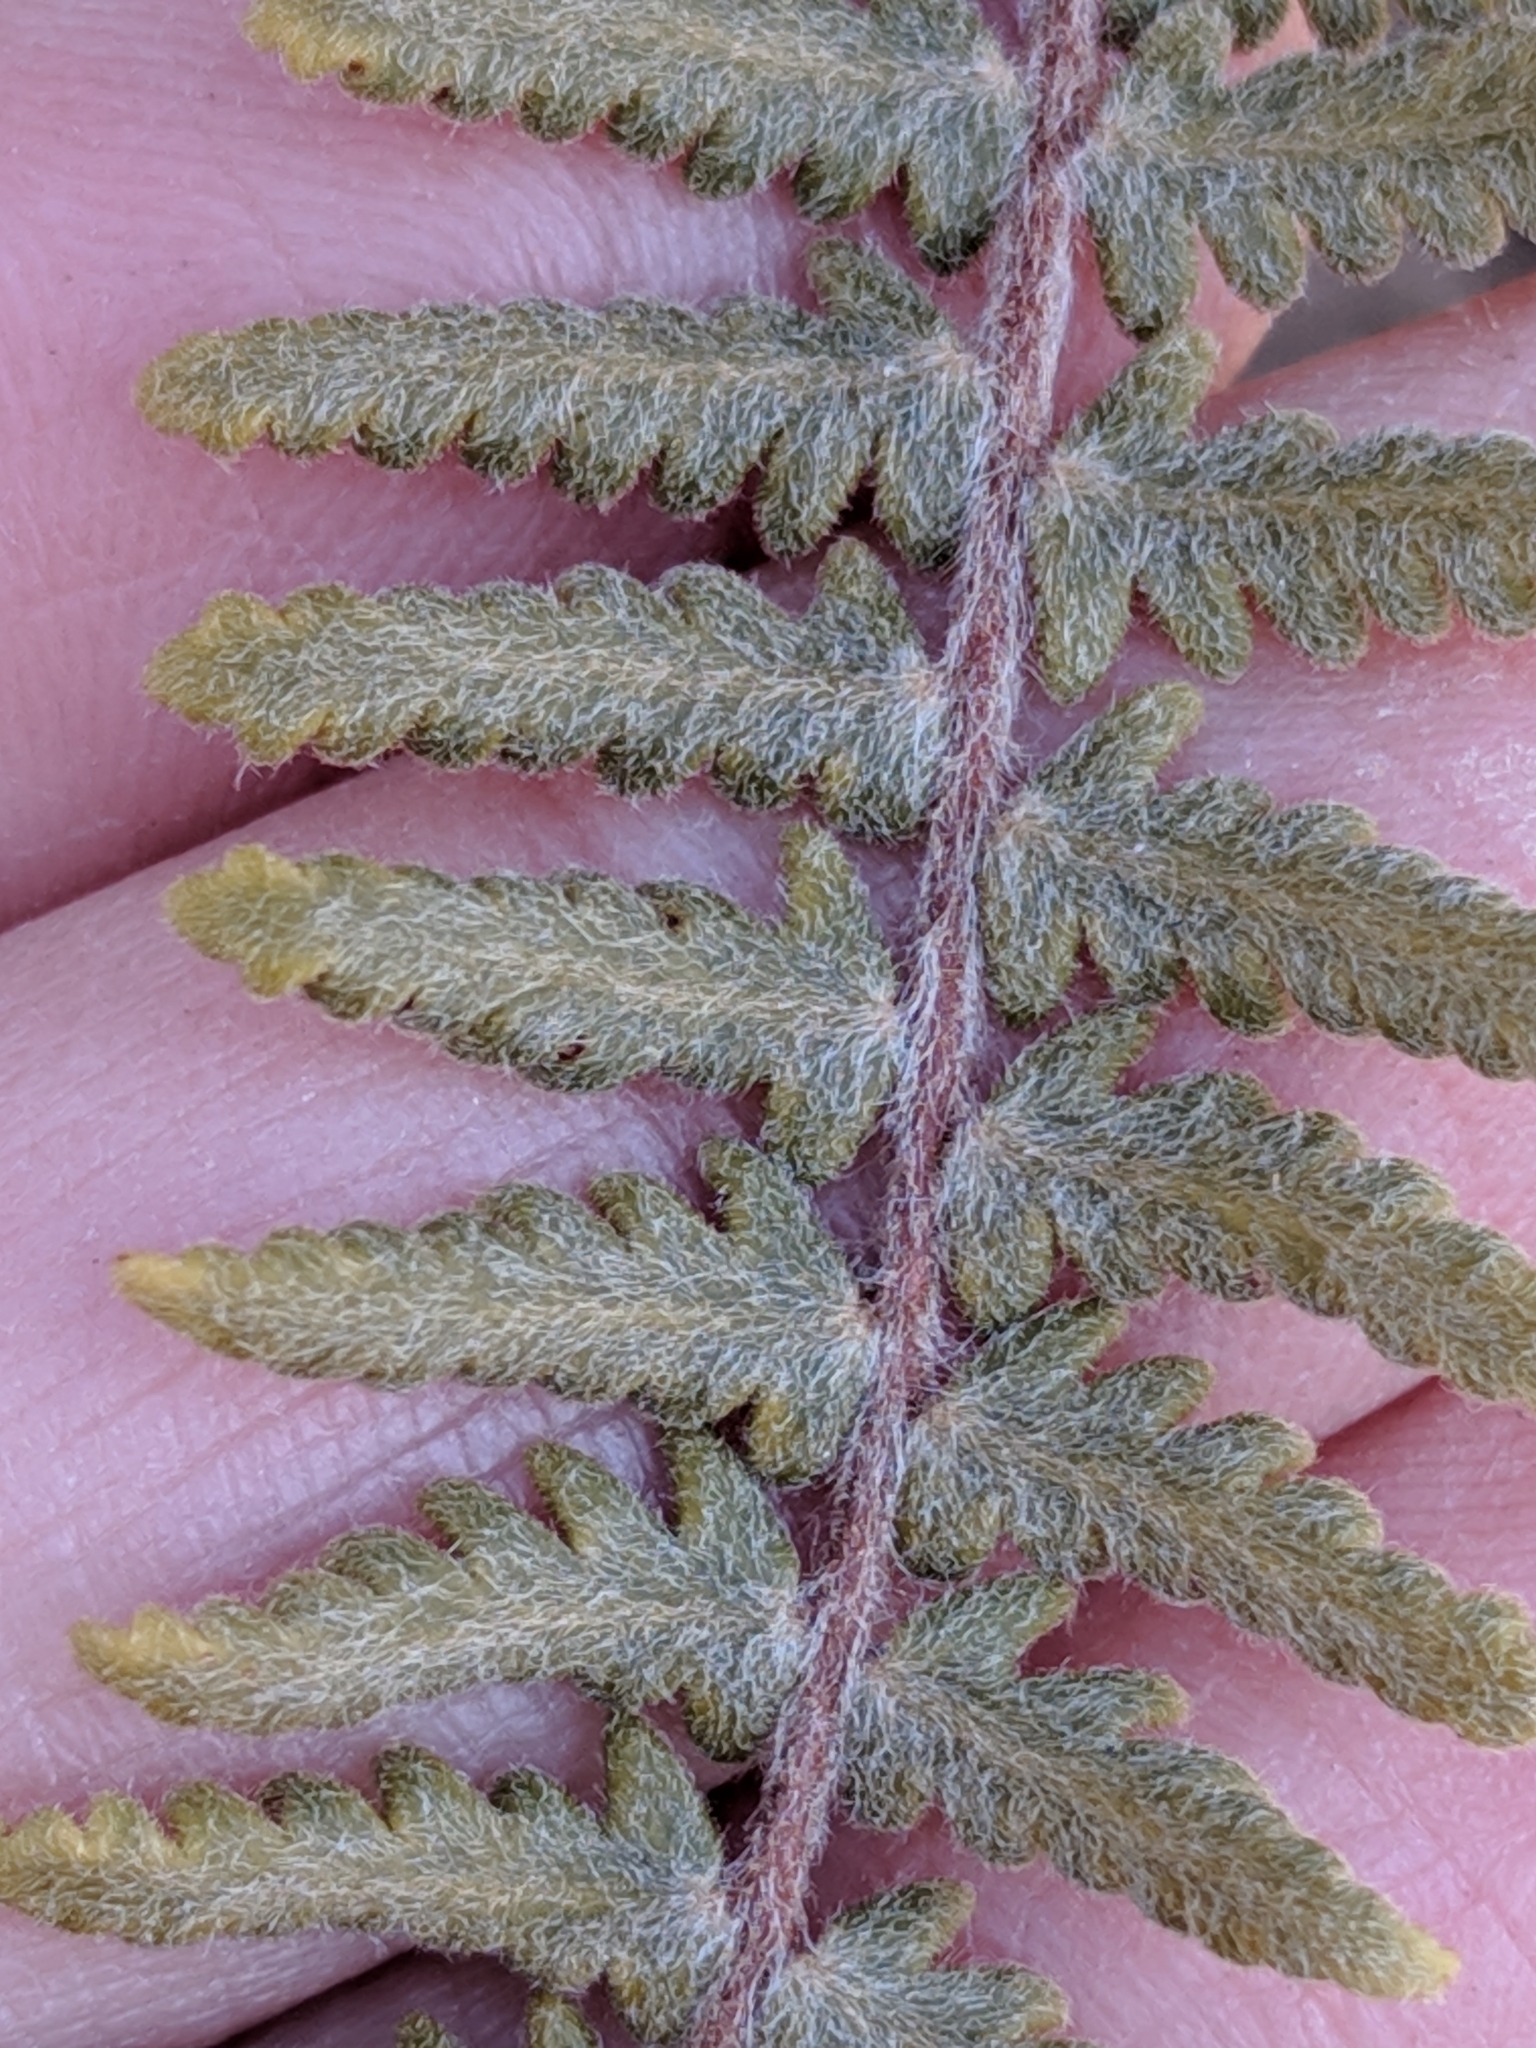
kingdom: Plantae
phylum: Tracheophyta
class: Polypodiopsida
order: Polypodiales
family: Pteridaceae
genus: Myriopteris
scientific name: Myriopteris aurea
